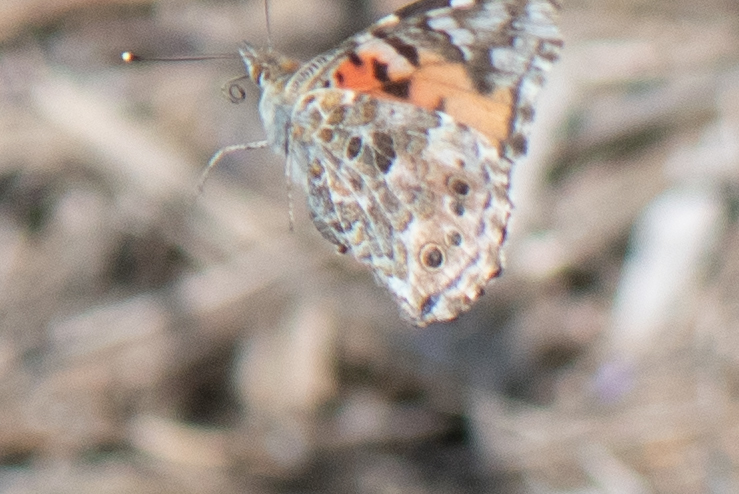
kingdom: Animalia
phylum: Arthropoda
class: Insecta
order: Lepidoptera
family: Nymphalidae
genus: Vanessa
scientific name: Vanessa cardui
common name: Painted lady
